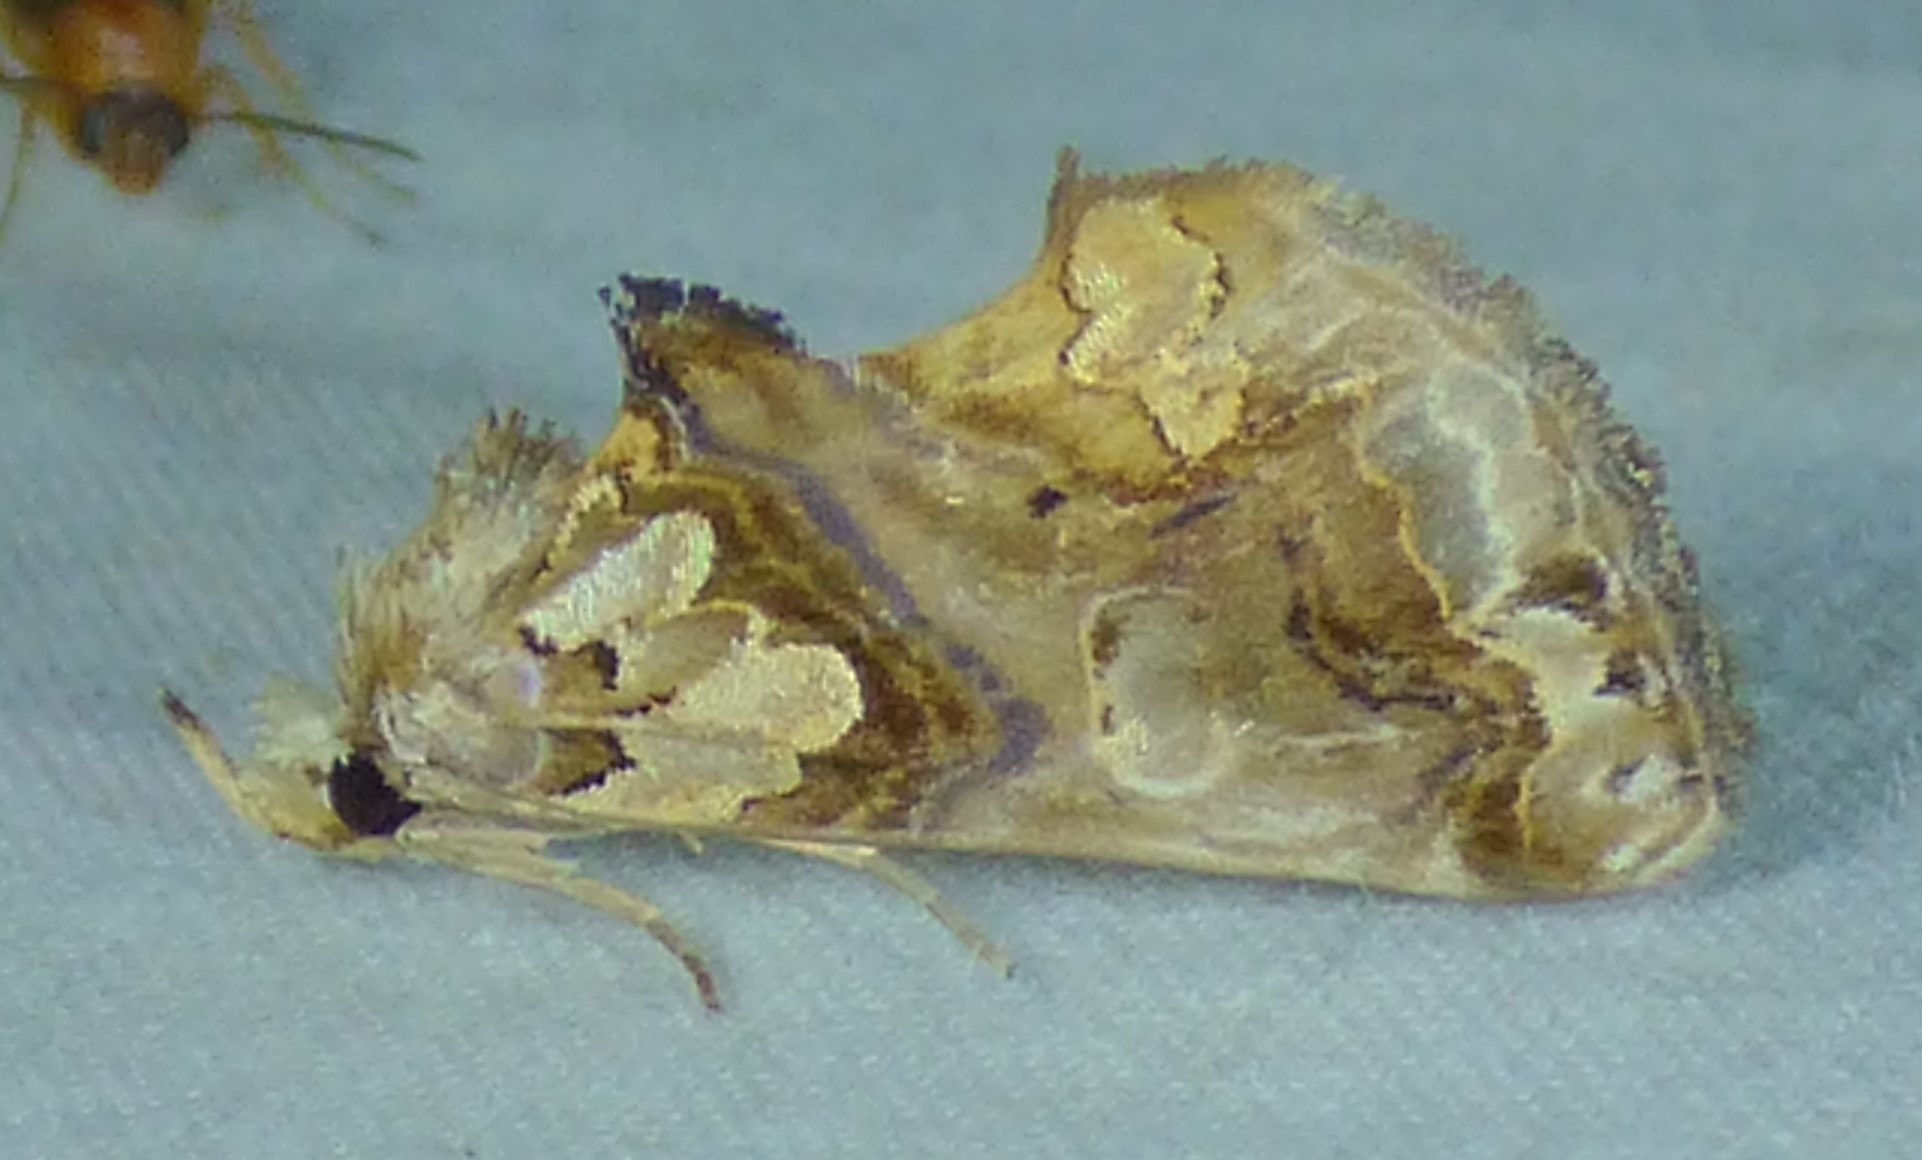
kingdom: Animalia
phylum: Arthropoda
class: Insecta
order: Lepidoptera
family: Erebidae
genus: Plusiodonta
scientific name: Plusiodonta compressipalpis
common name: Moonseed moth
